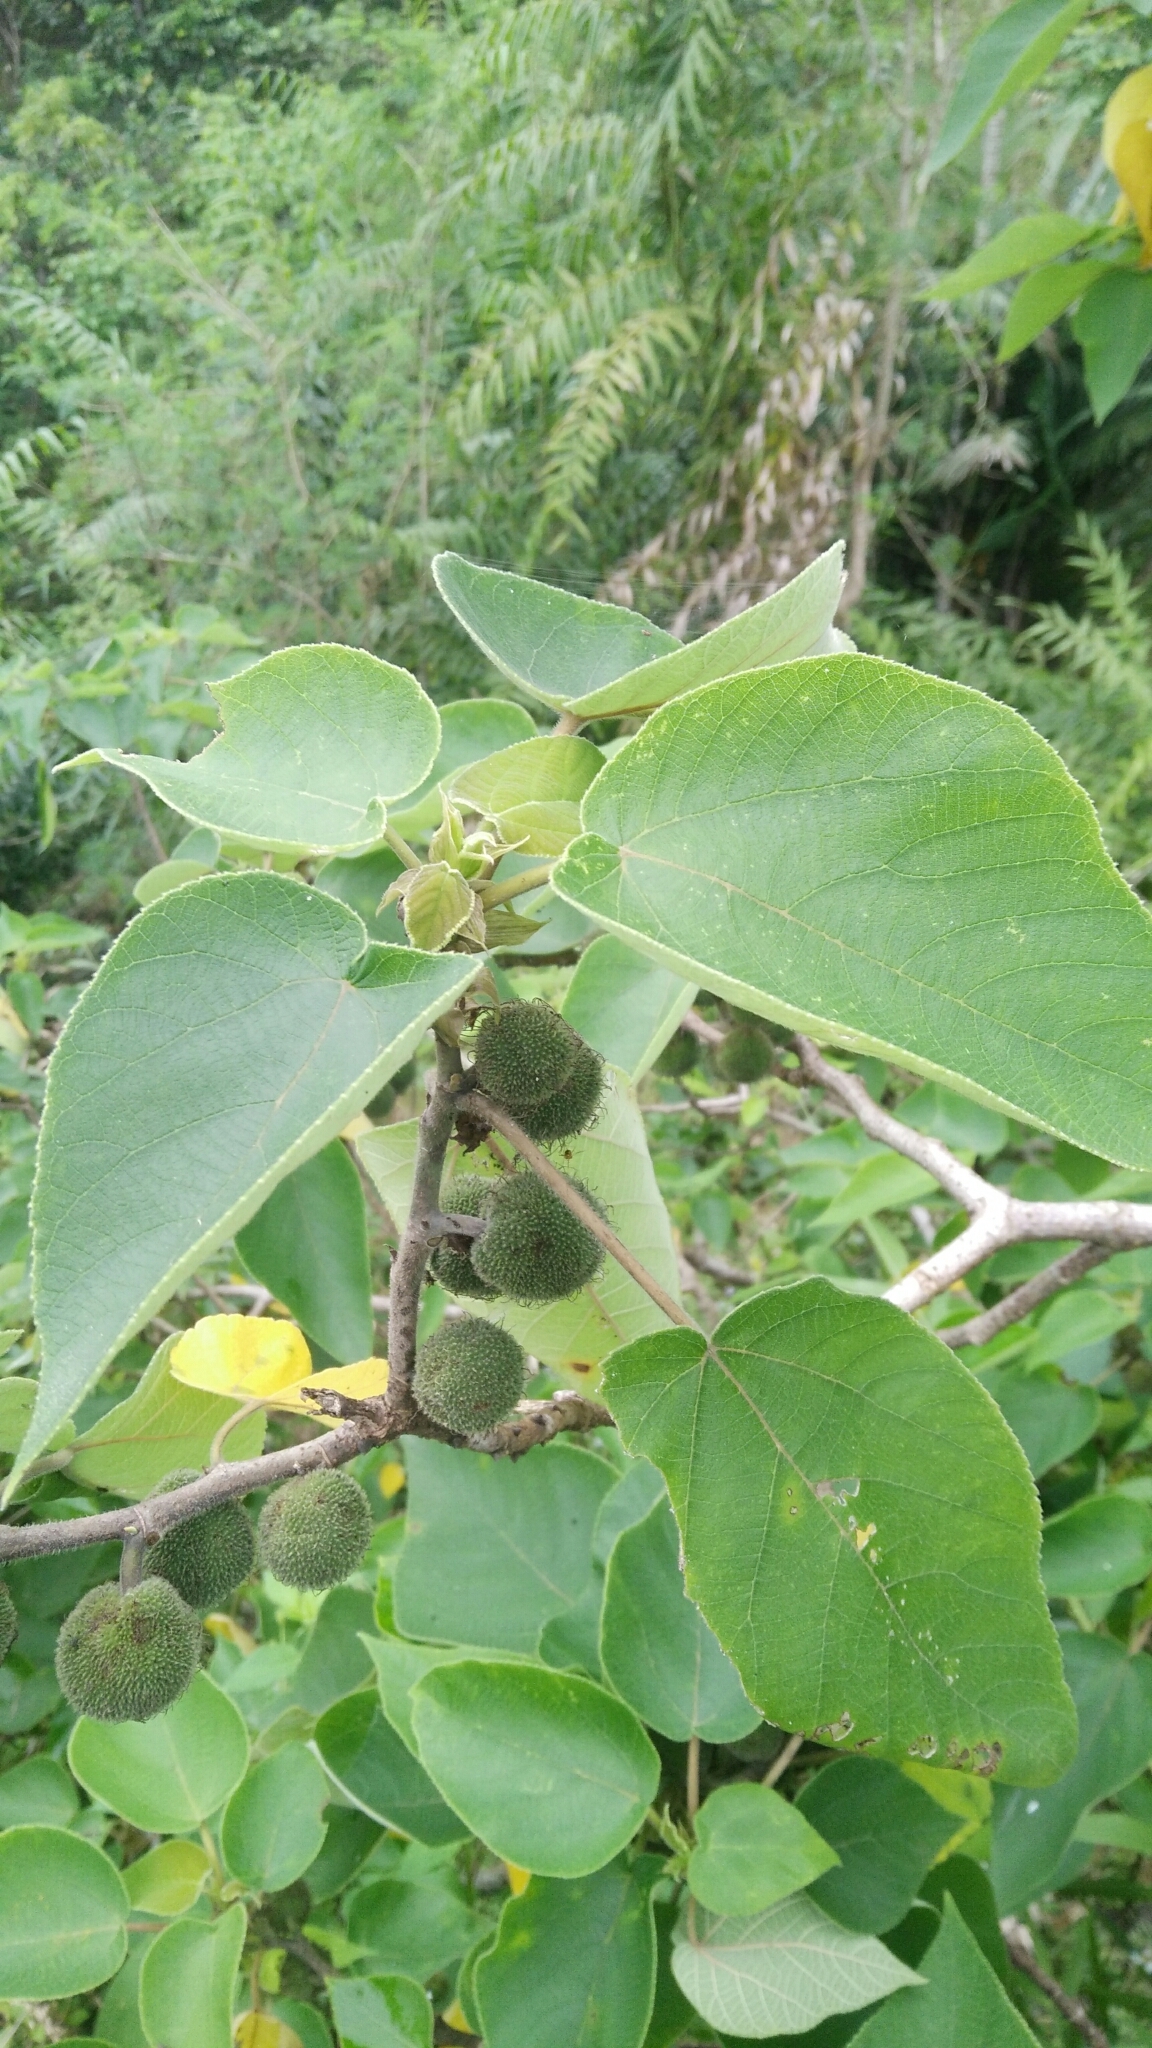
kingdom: Plantae
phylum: Tracheophyta
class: Magnoliopsida
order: Rosales
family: Moraceae
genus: Broussonetia
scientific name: Broussonetia papyrifera
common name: Paper mulberry
